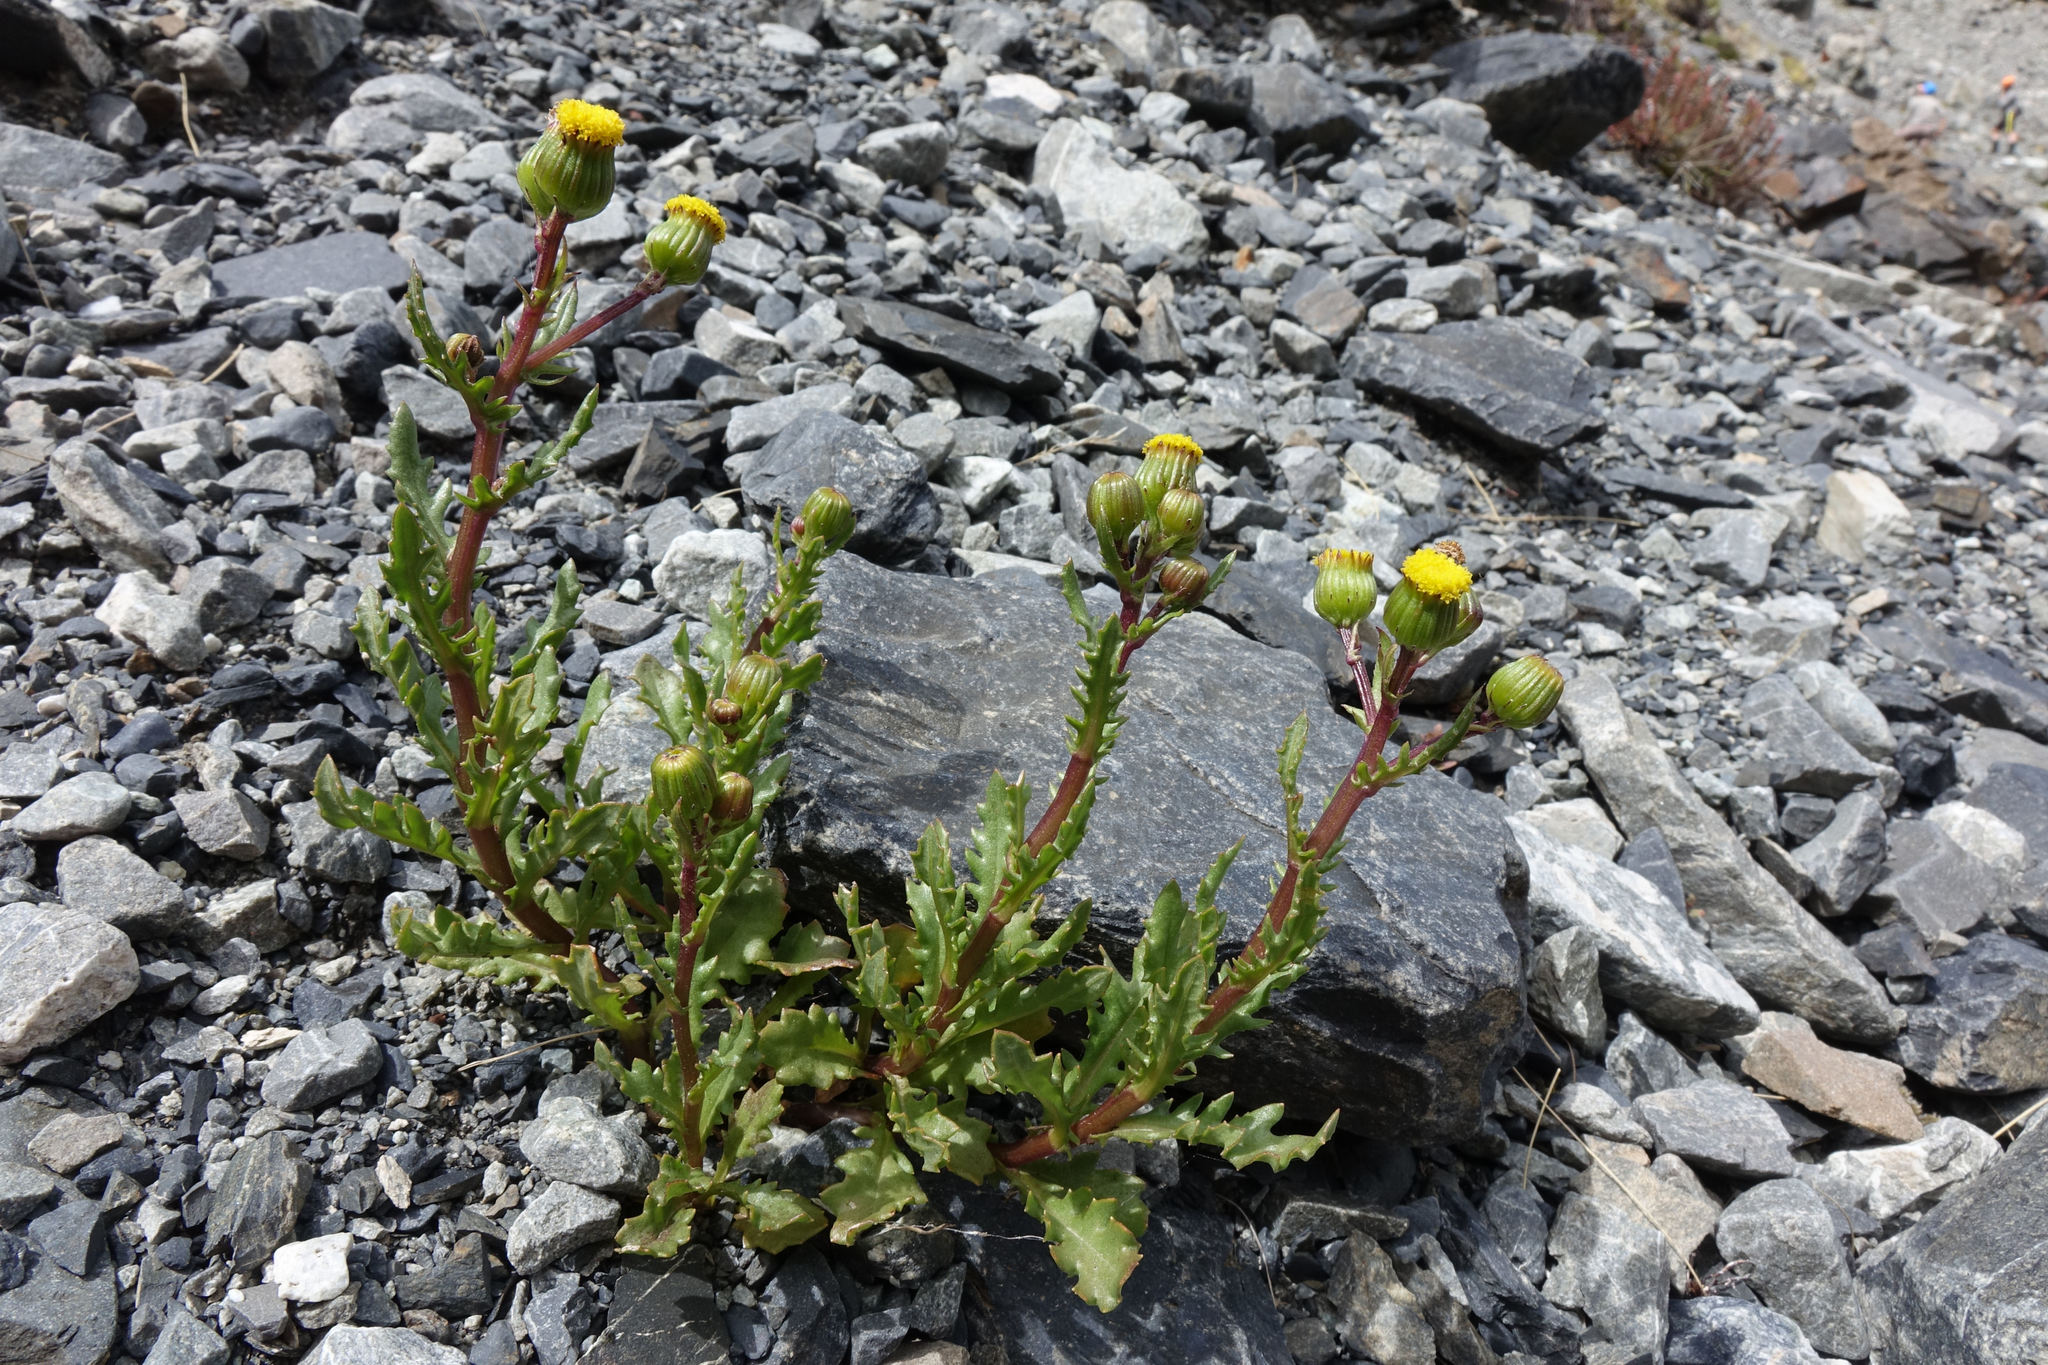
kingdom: Plantae
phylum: Tracheophyta
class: Magnoliopsida
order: Asterales
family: Asteraceae
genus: Senecio
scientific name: Senecio matatini
